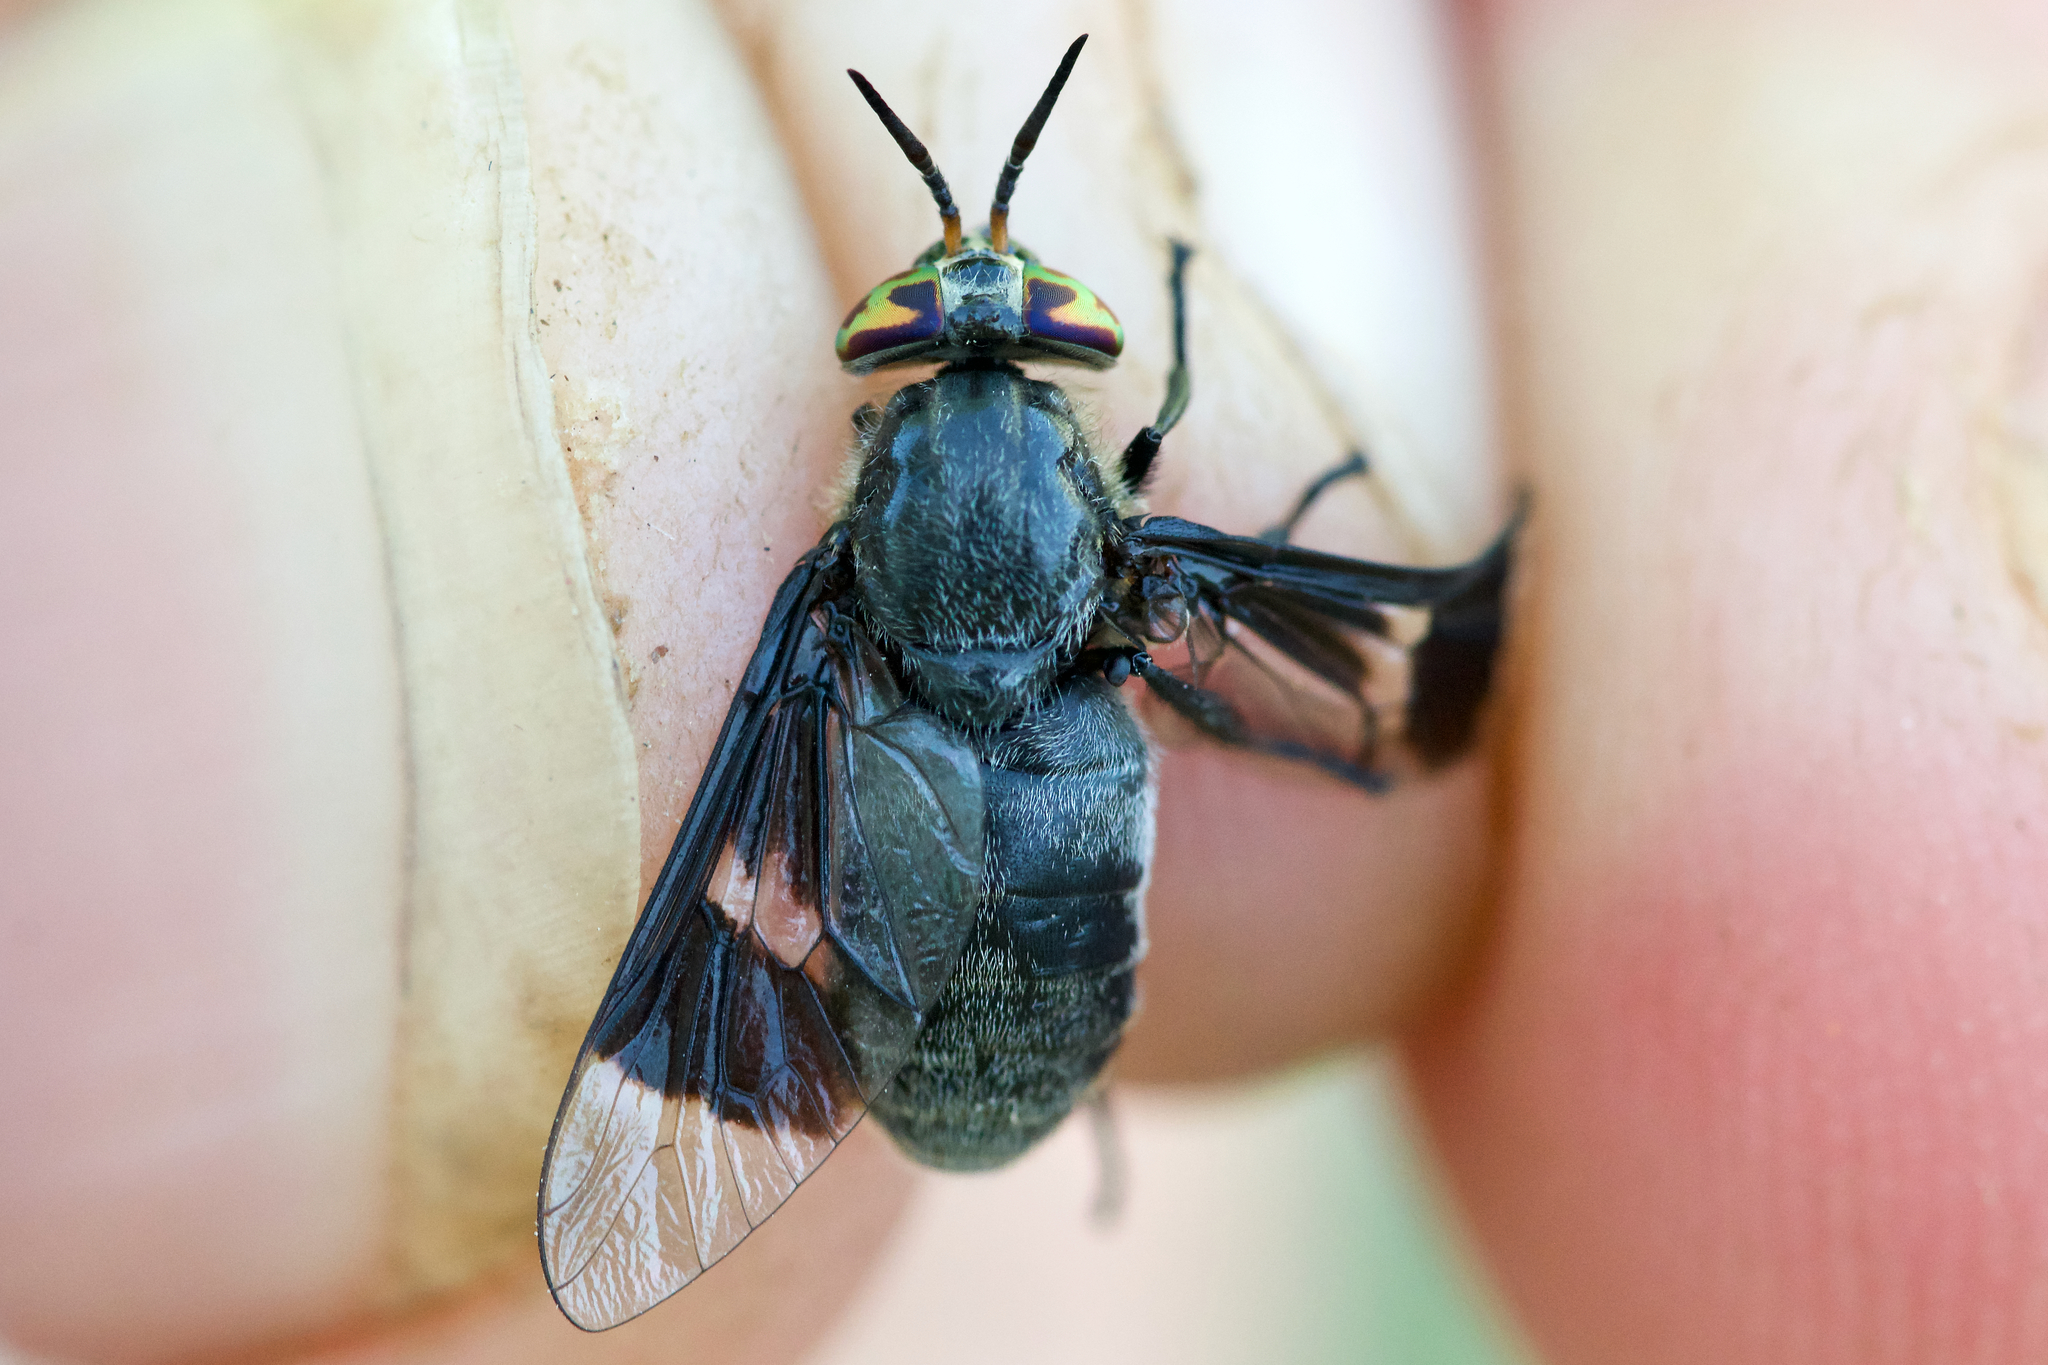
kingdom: Animalia
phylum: Arthropoda
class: Insecta
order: Diptera
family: Tabanidae
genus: Chrysops
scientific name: Chrysops carbonarius
